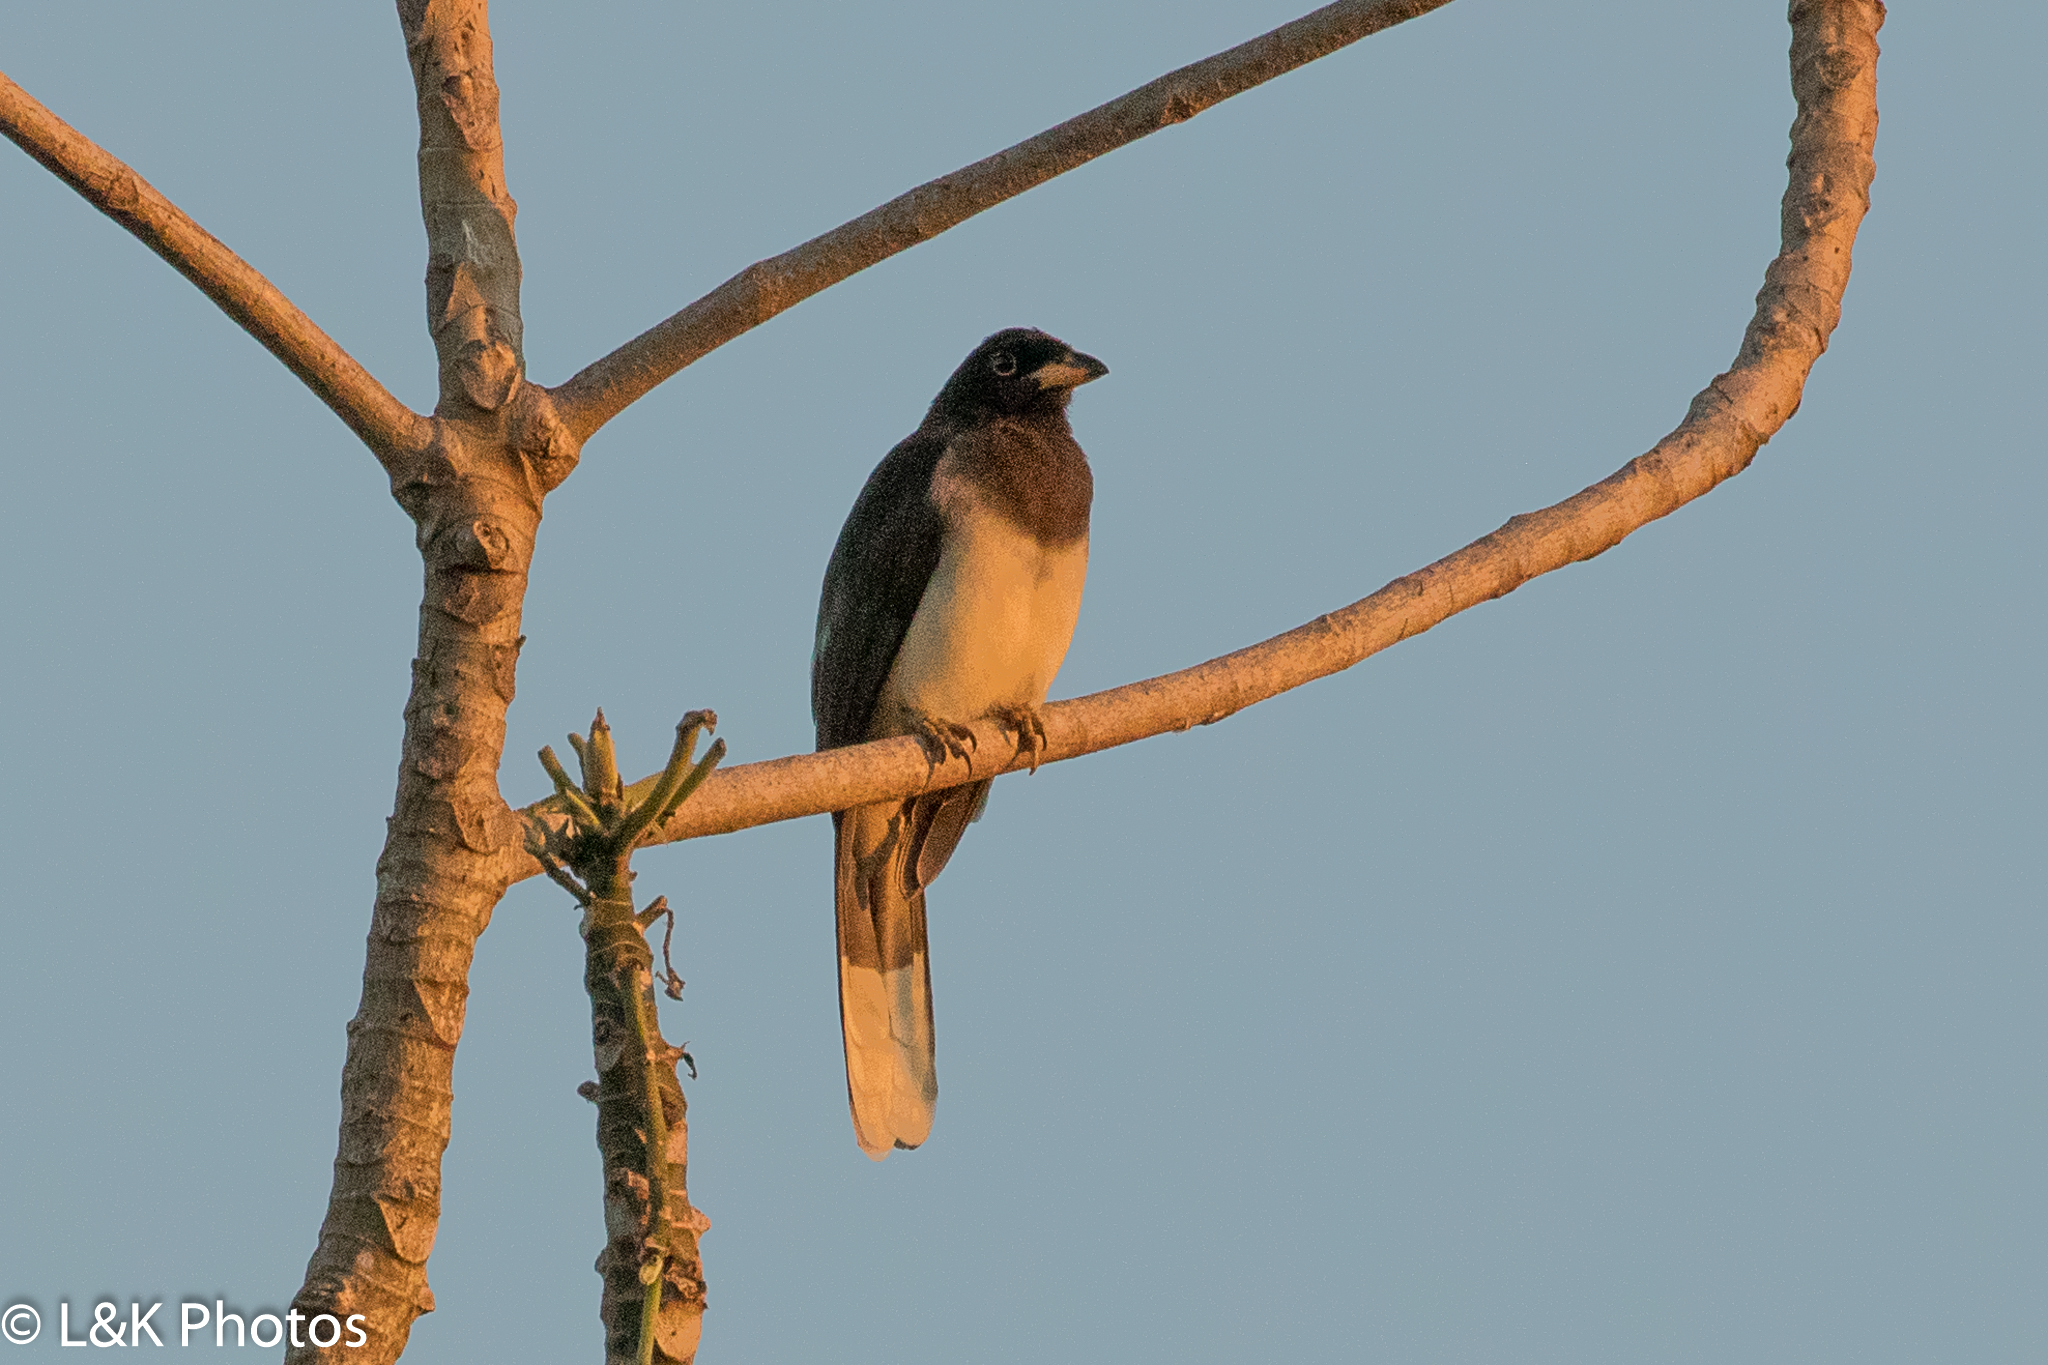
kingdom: Animalia
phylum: Chordata
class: Aves
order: Passeriformes
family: Corvidae
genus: Psilorhinus
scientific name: Psilorhinus morio
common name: Brown jay
